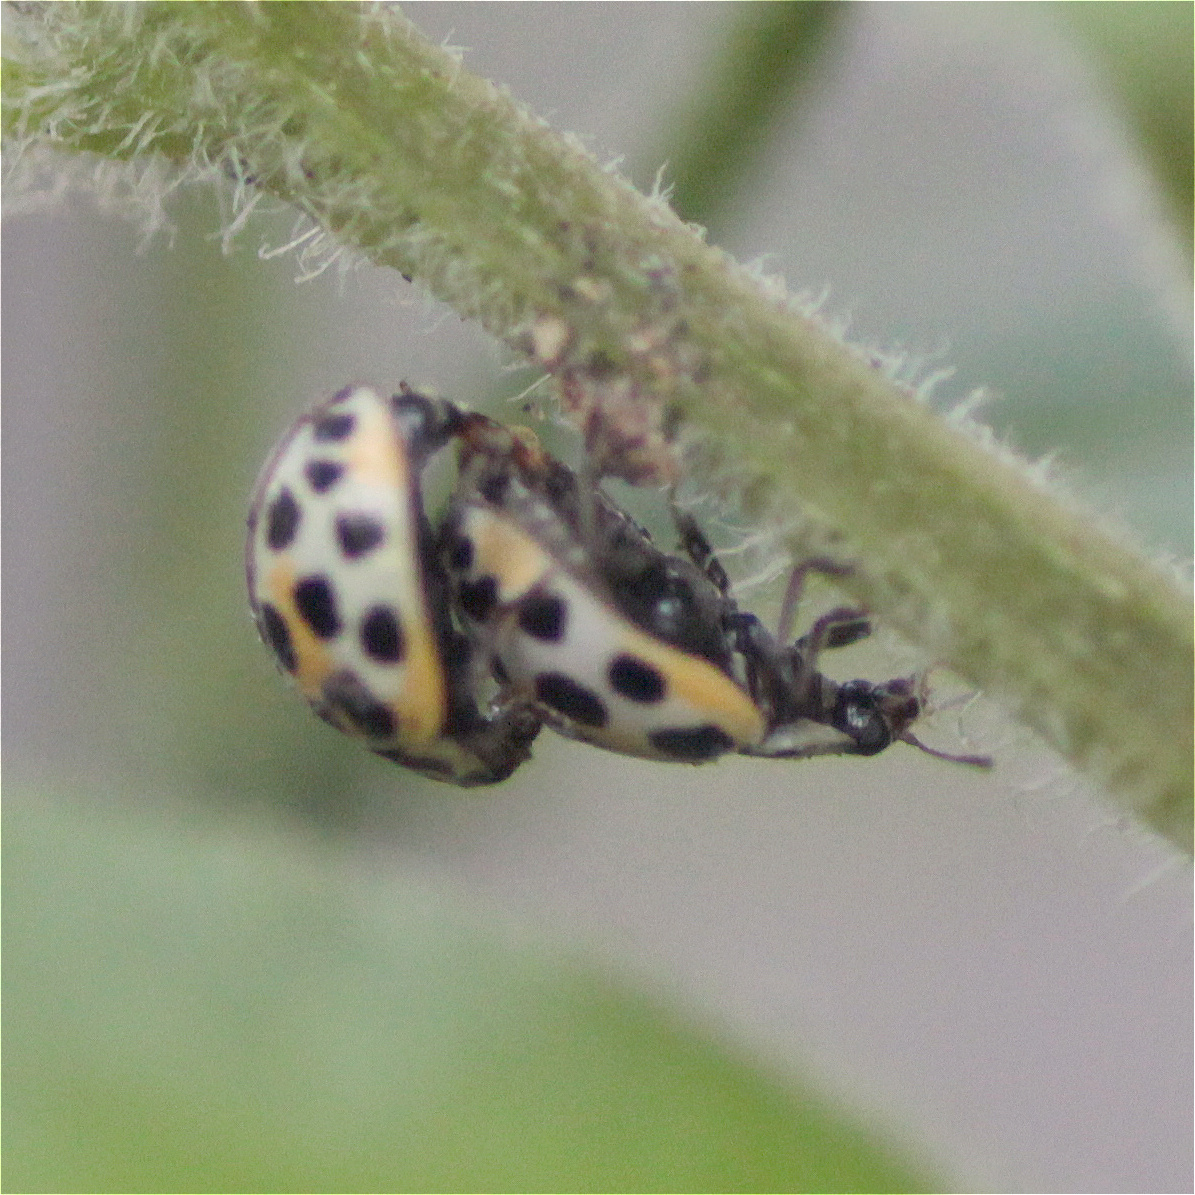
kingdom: Animalia
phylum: Arthropoda
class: Insecta
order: Coleoptera
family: Coccinellidae
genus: Psyllobora
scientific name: Psyllobora
